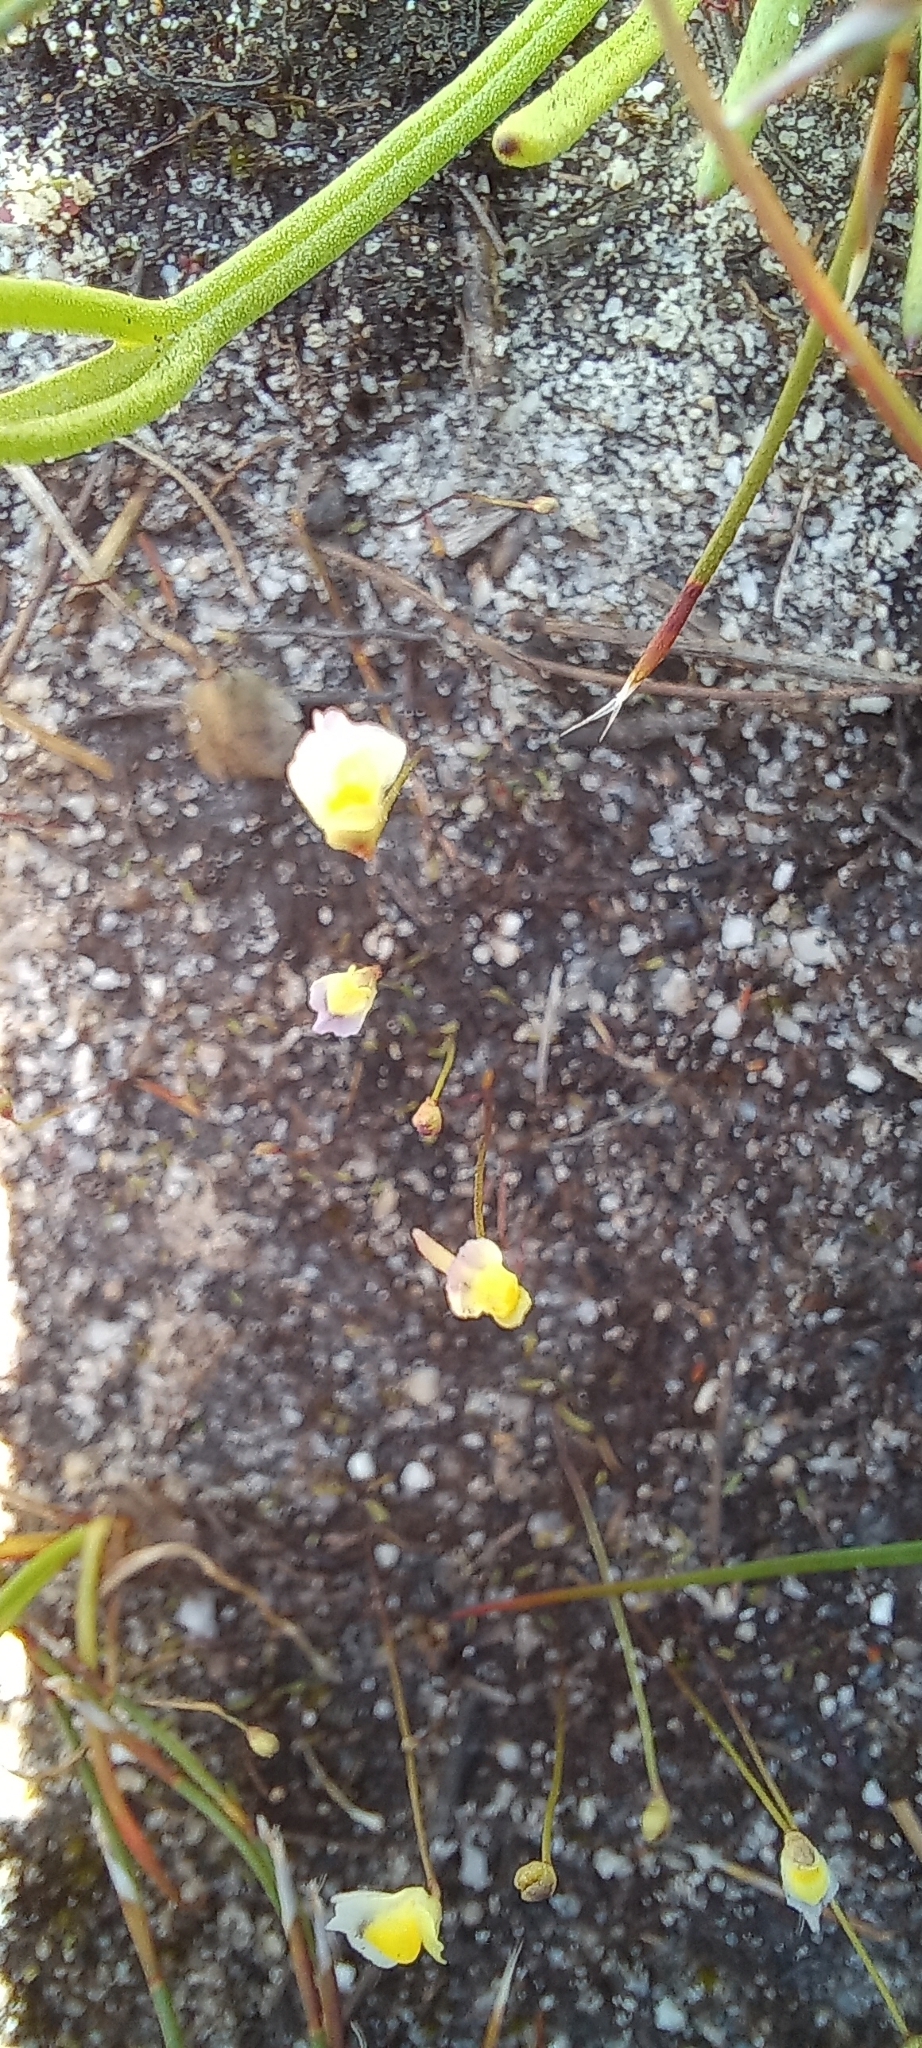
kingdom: Plantae
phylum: Tracheophyta
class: Magnoliopsida
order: Lamiales
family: Lentibulariaceae
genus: Utricularia
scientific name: Utricularia bisquamata
